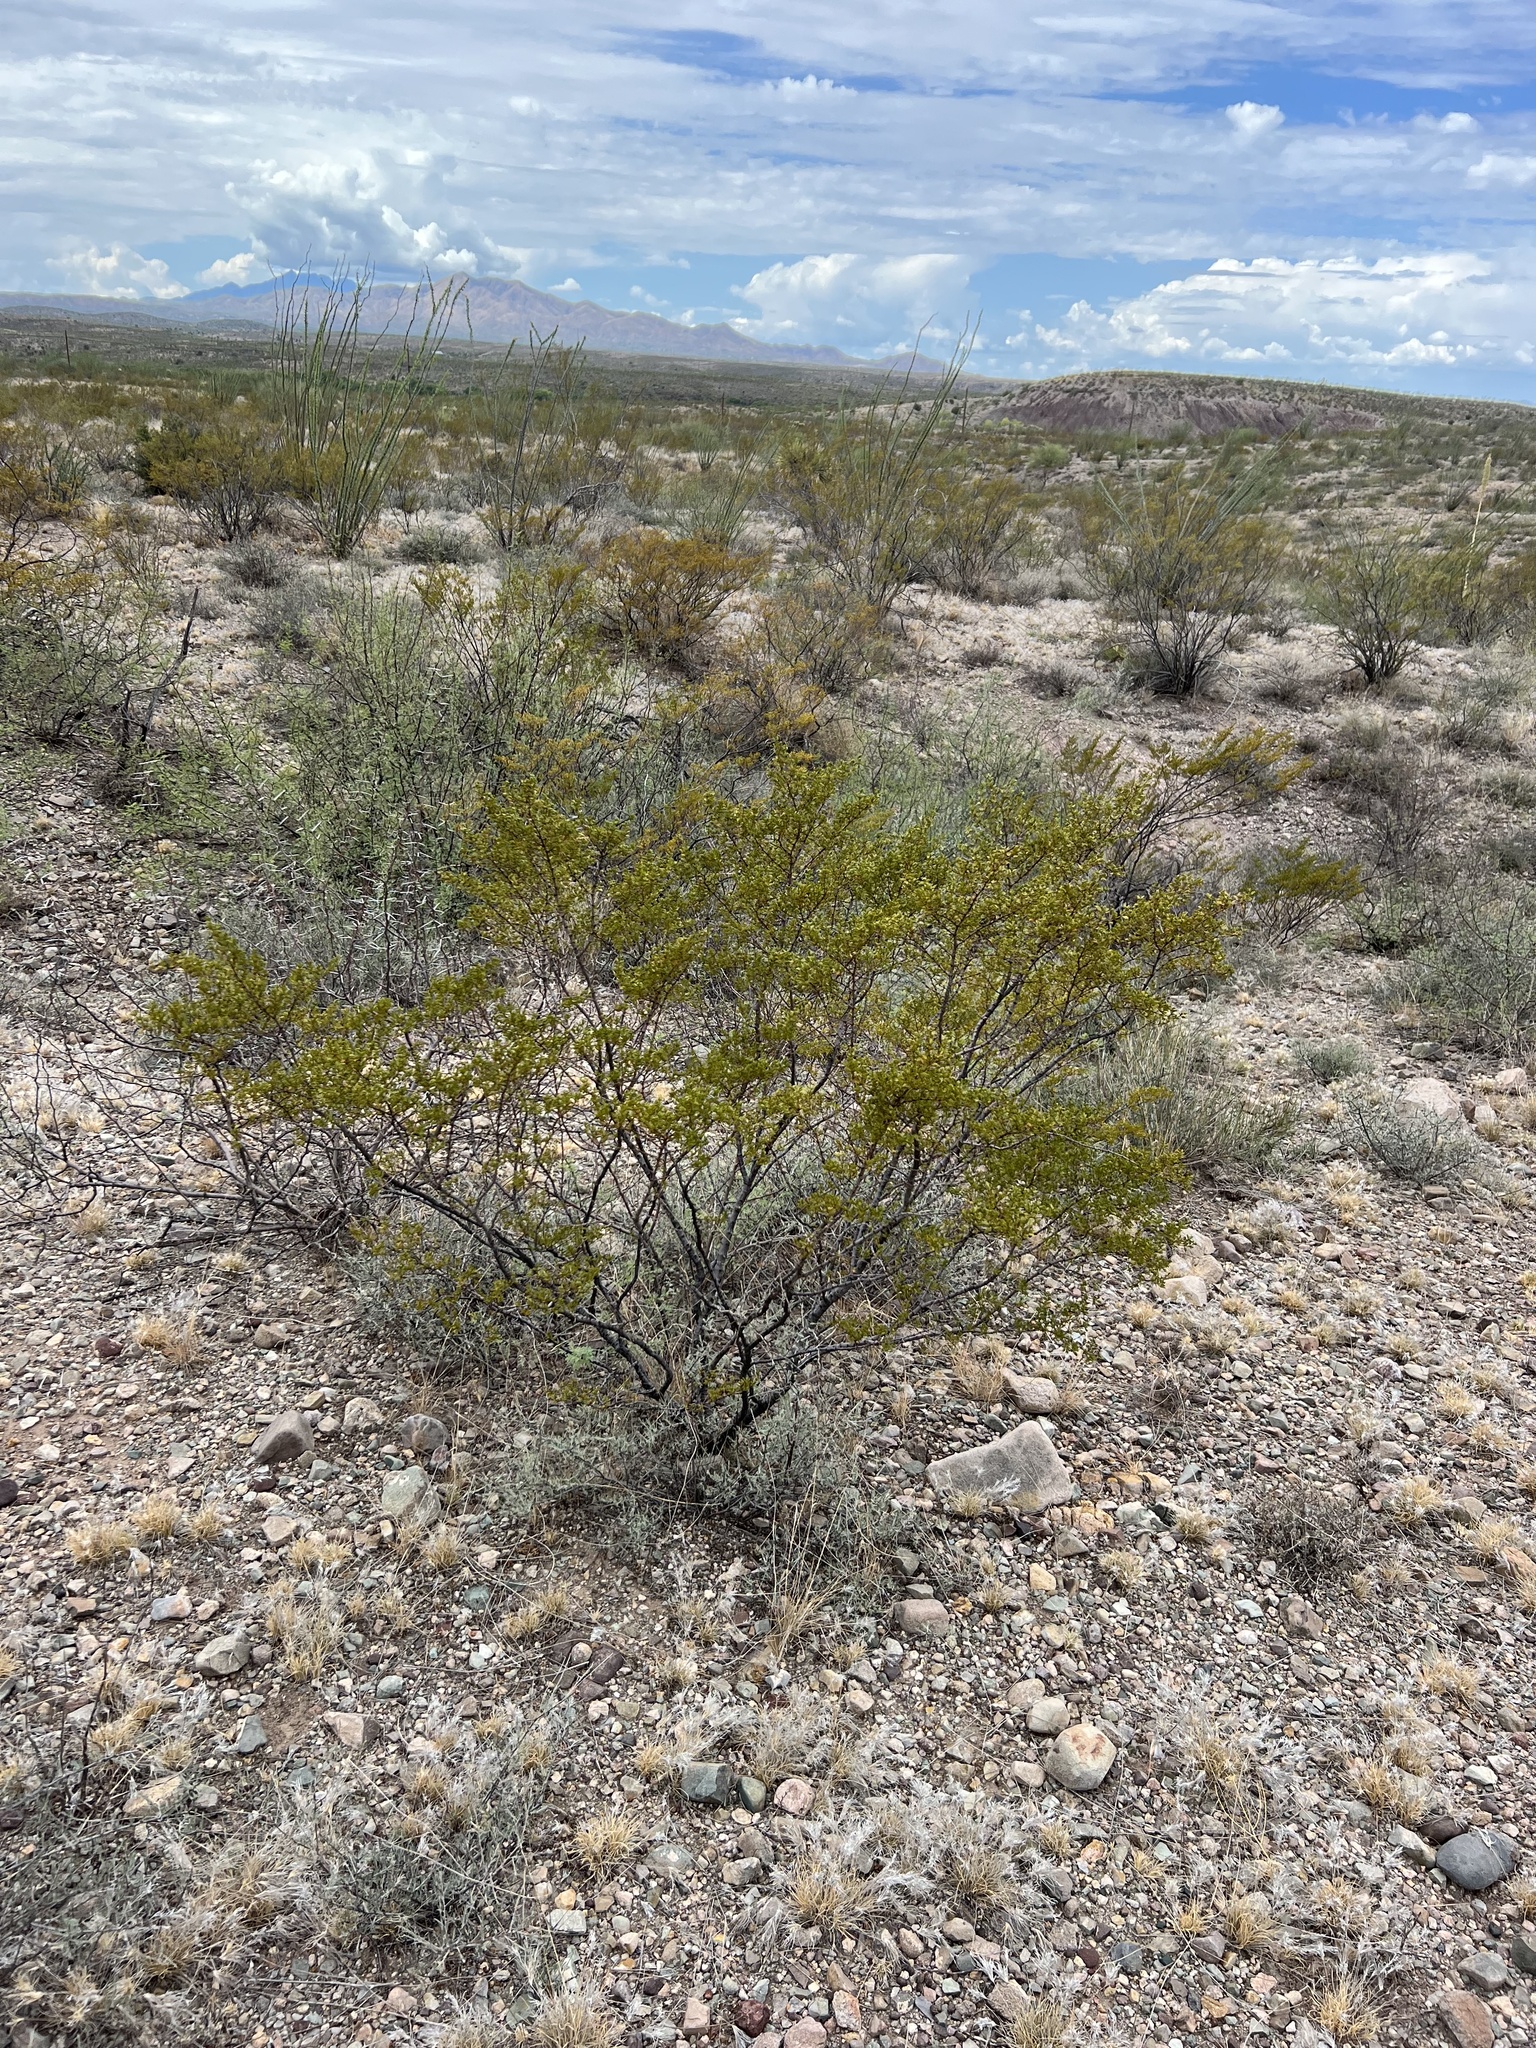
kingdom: Plantae
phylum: Tracheophyta
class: Magnoliopsida
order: Zygophyllales
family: Zygophyllaceae
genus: Larrea
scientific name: Larrea tridentata
